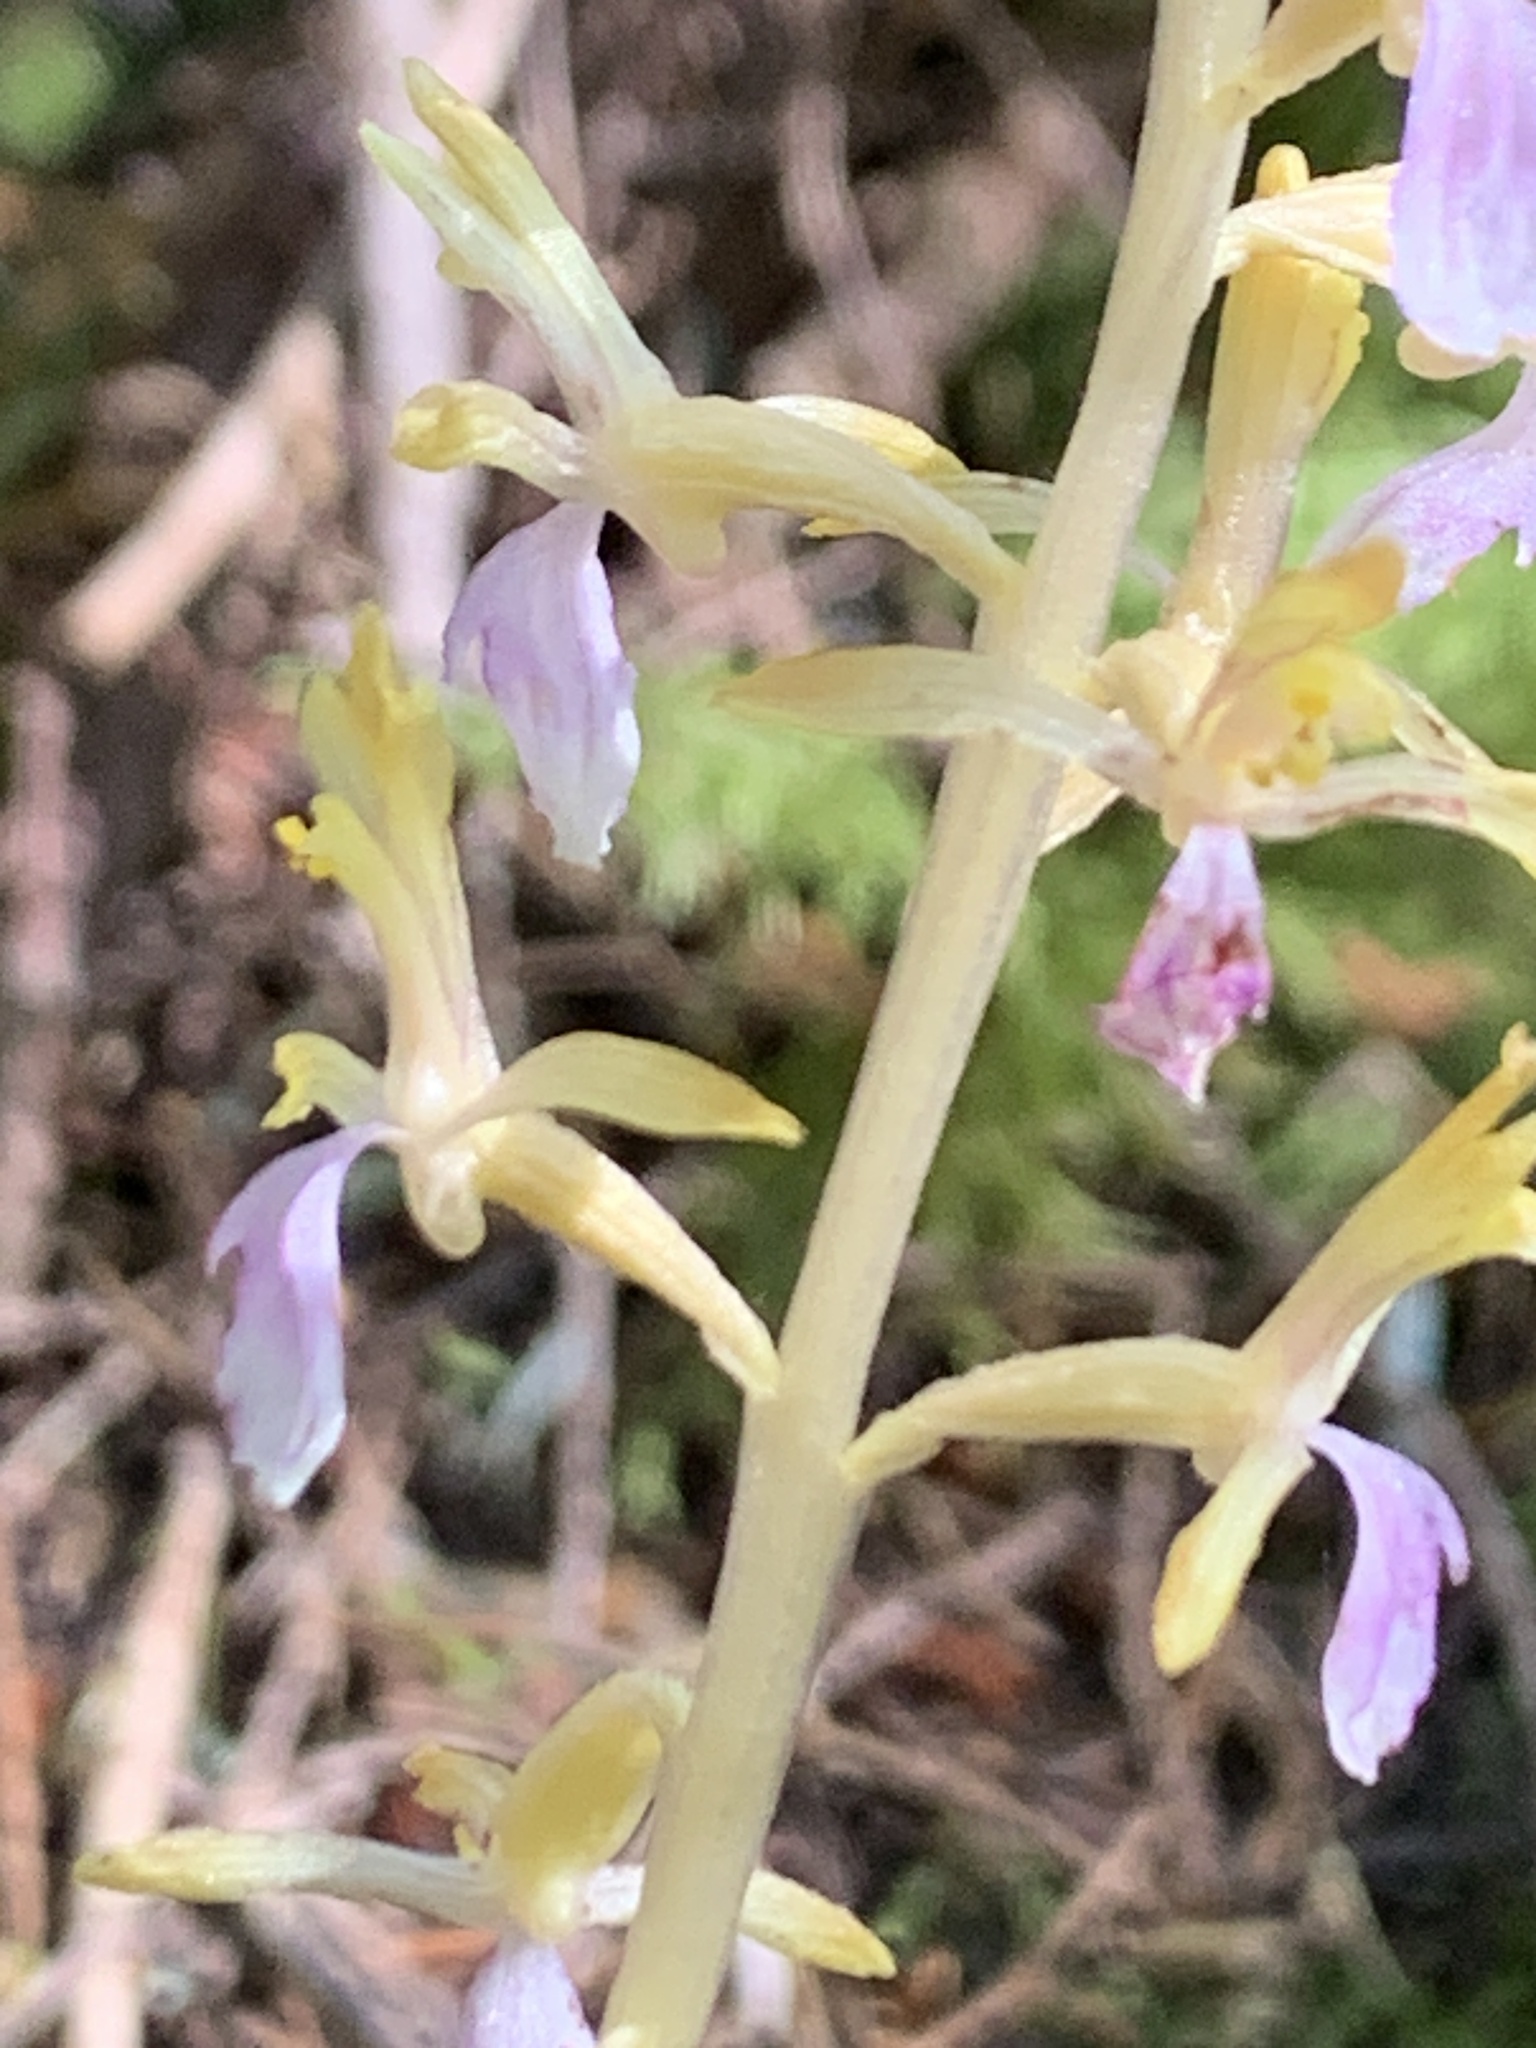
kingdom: Plantae
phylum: Tracheophyta
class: Liliopsida
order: Asparagales
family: Orchidaceae
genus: Corallorhiza
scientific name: Corallorhiza mertensiana
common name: Pacific coralroot
